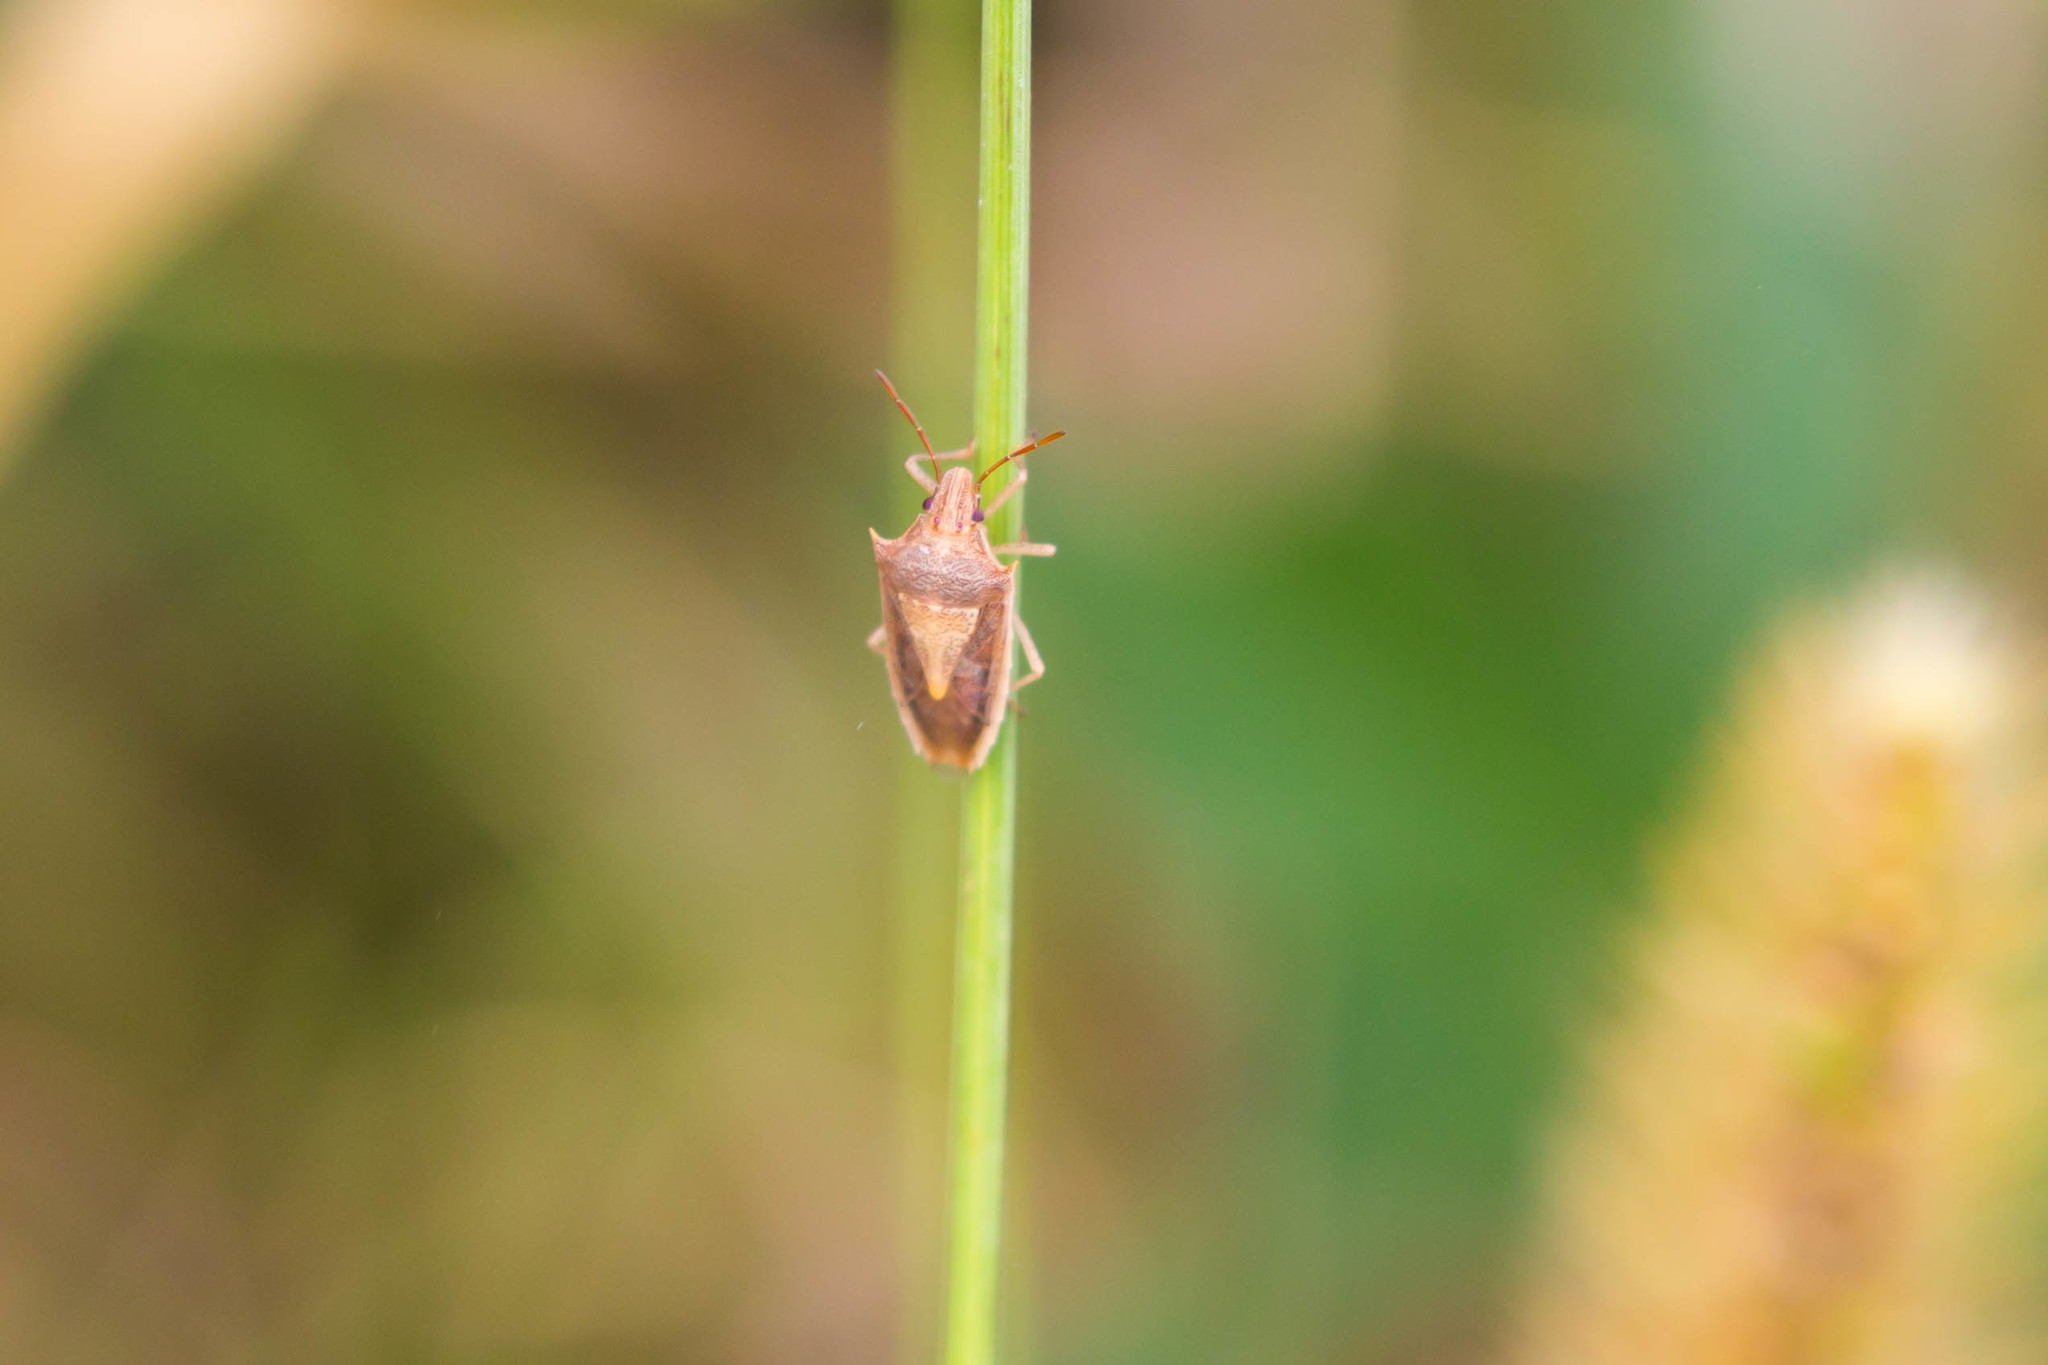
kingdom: Animalia
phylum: Arthropoda
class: Insecta
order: Hemiptera
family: Pentatomidae
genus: Oebalus
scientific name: Oebalus pugnax
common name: Rice stink bug
